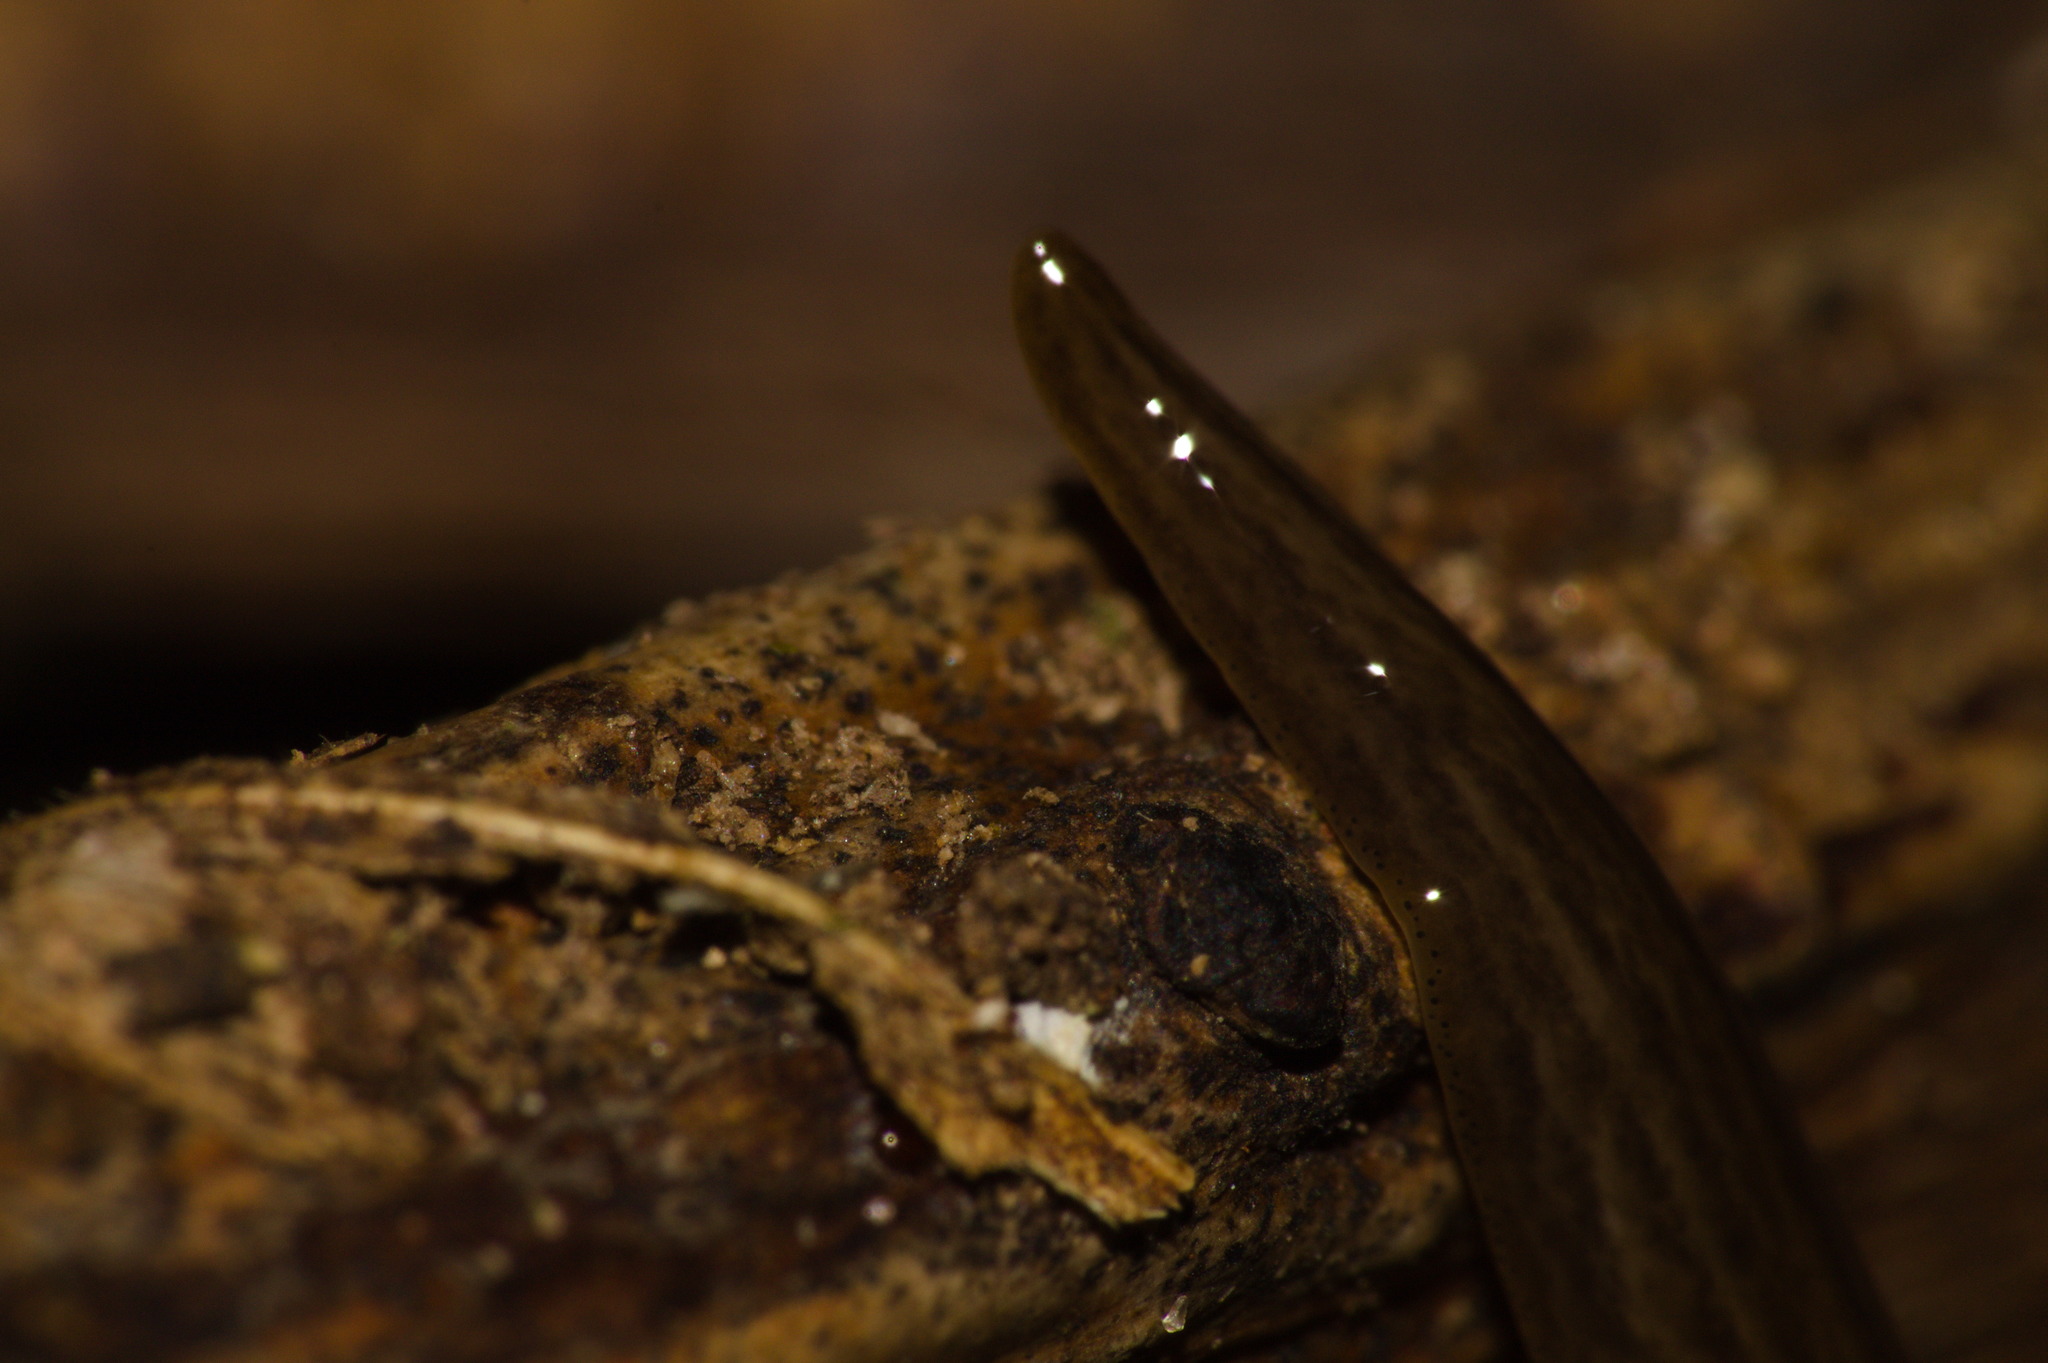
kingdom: Animalia
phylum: Platyhelminthes
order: Tricladida
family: Geoplanidae
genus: Obama
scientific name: Obama nungara
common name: Obama flatworm
